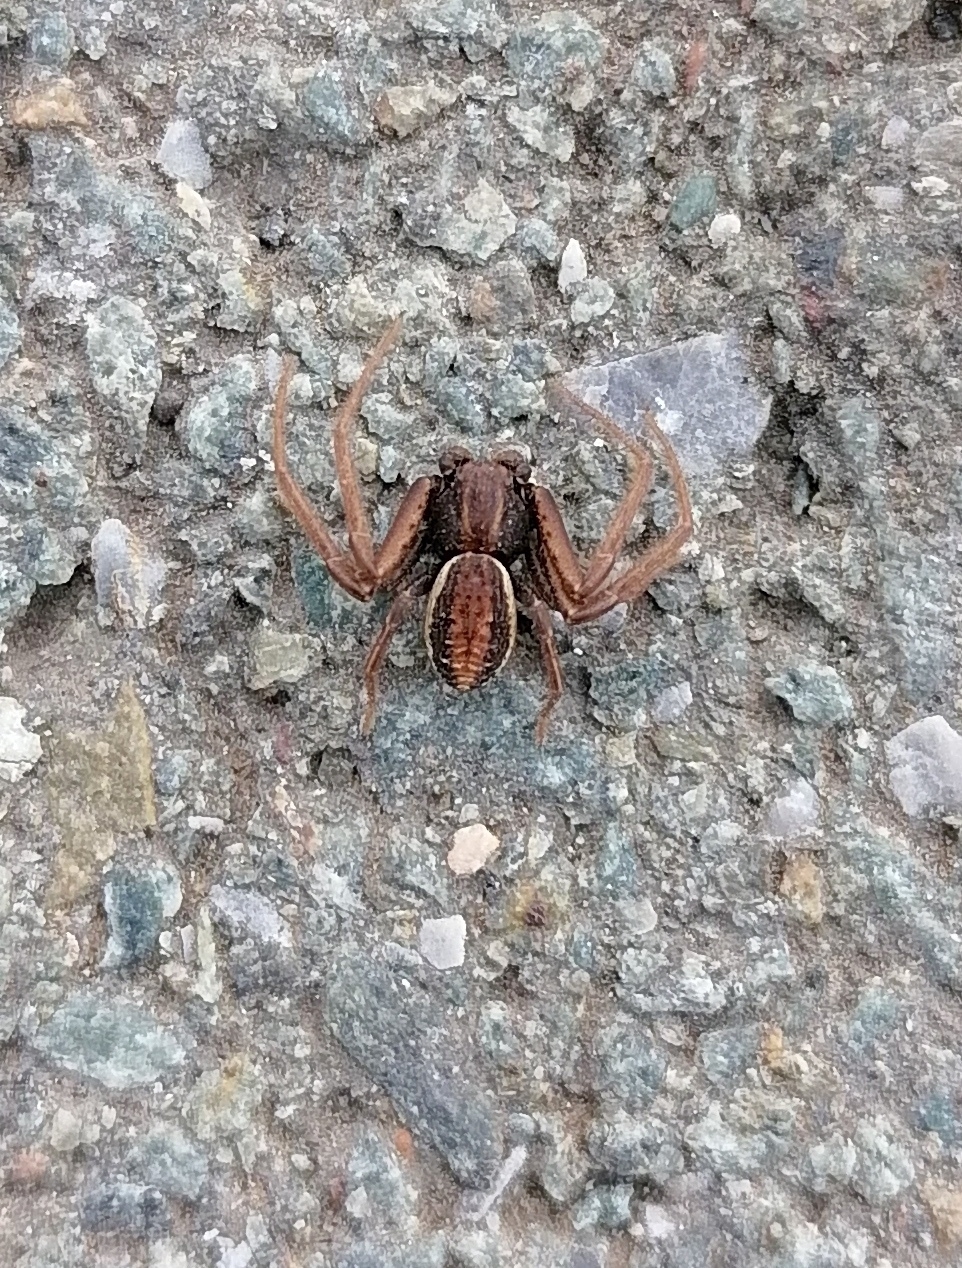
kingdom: Animalia
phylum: Arthropoda
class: Arachnida
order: Araneae
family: Thomisidae
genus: Spiracme
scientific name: Spiracme striatipes
